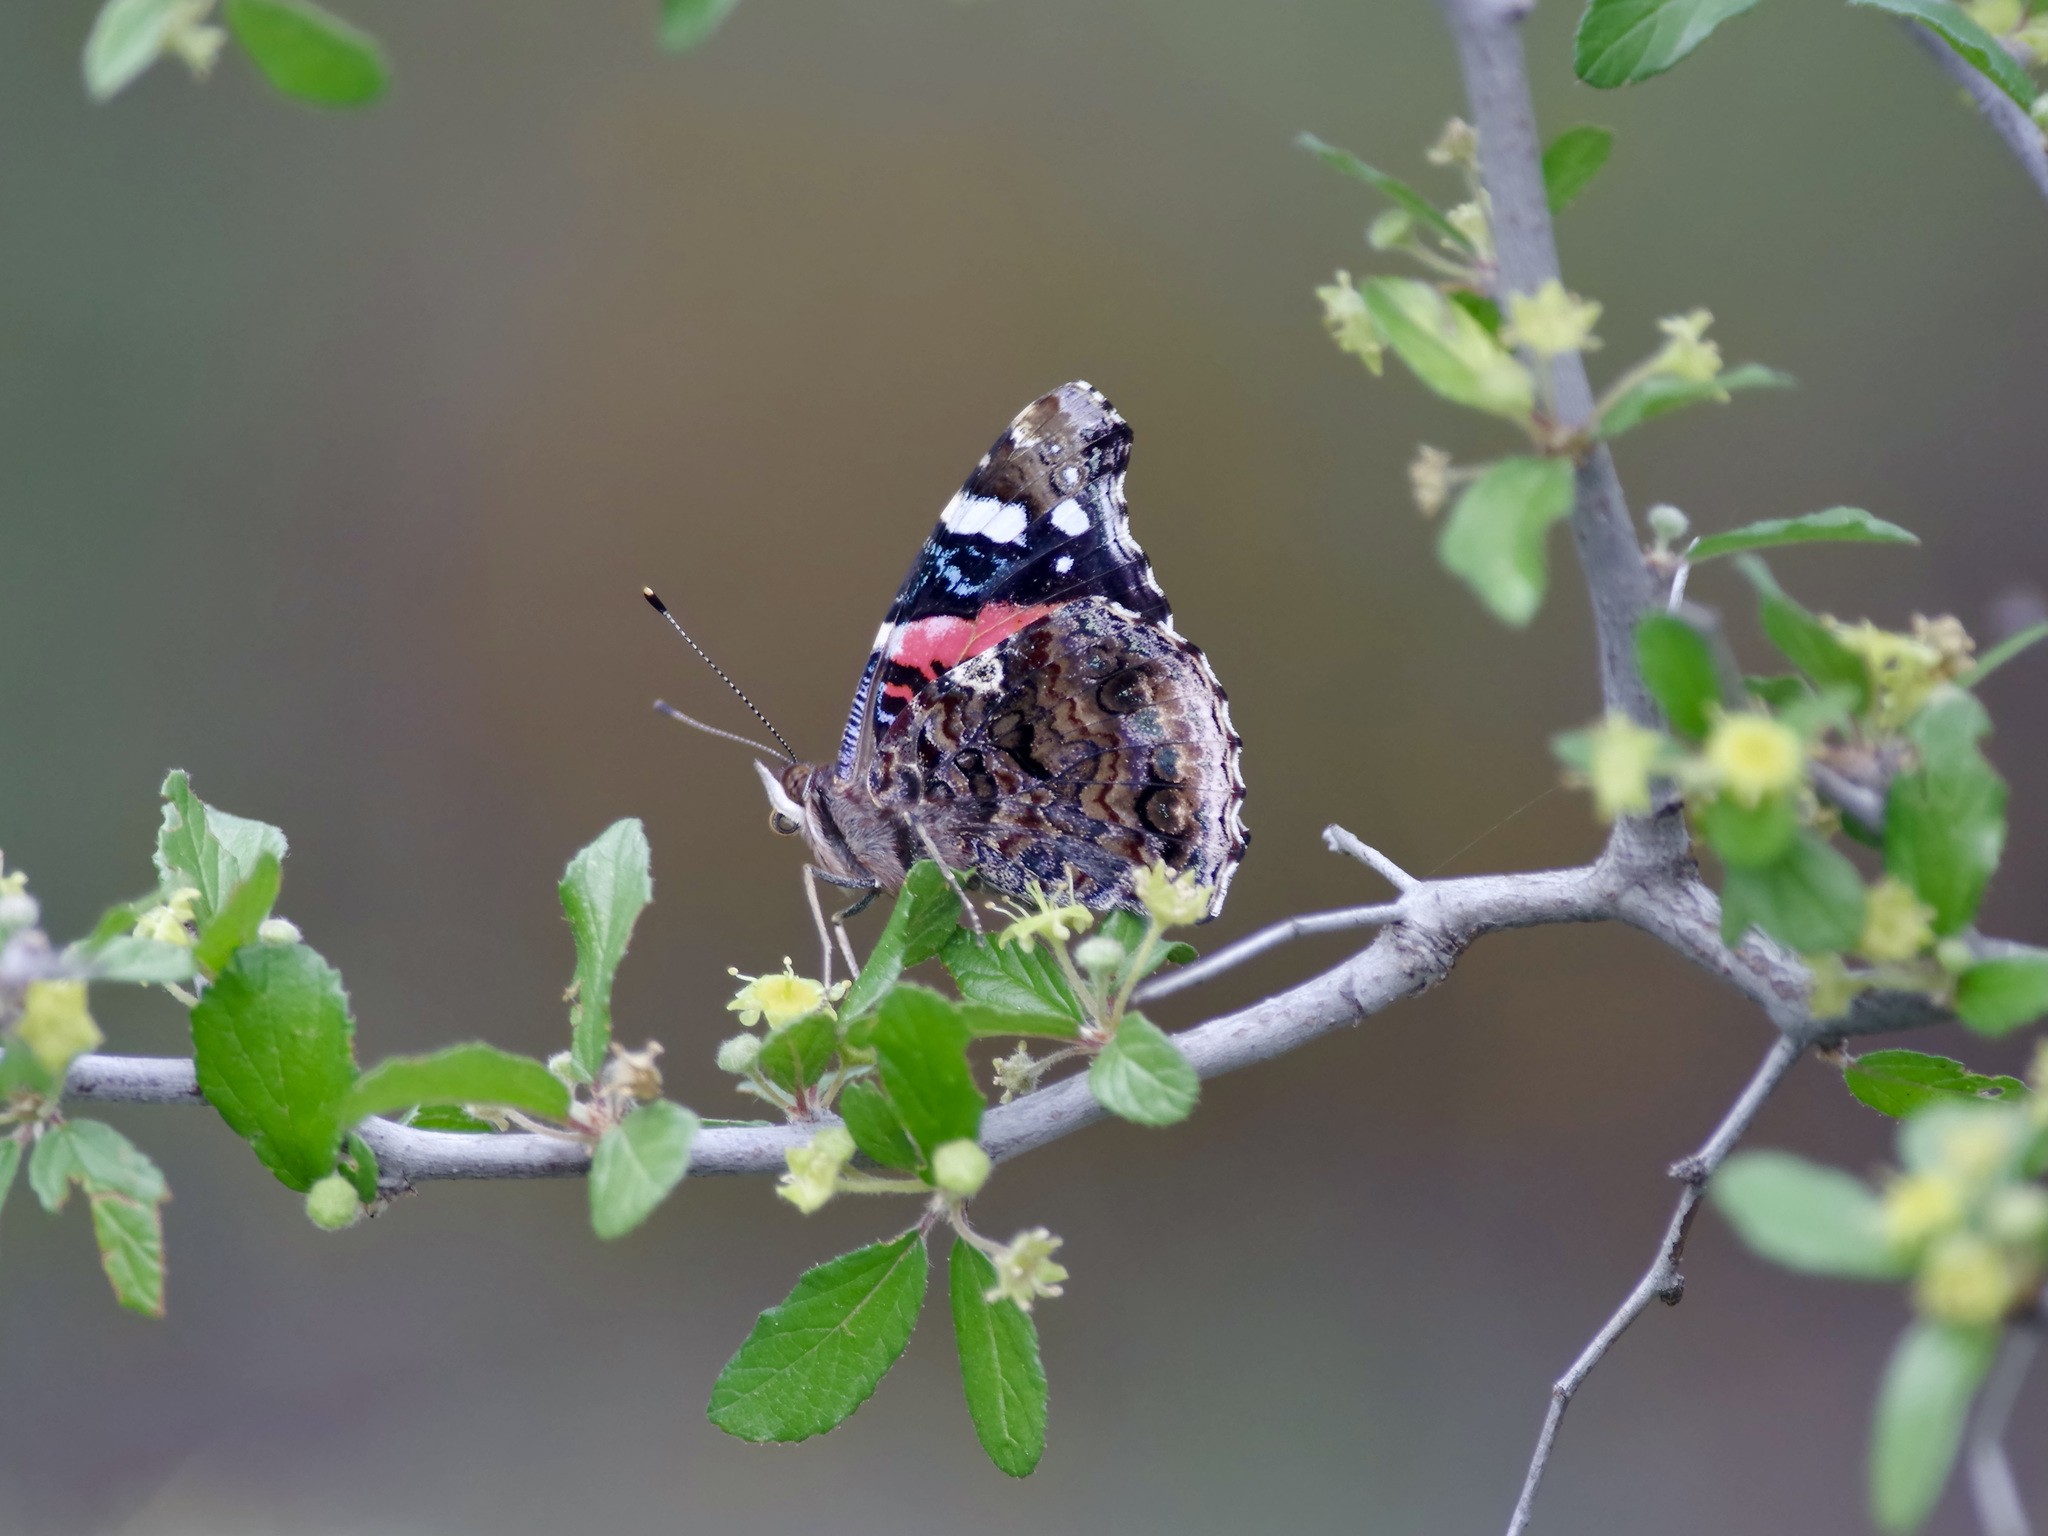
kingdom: Animalia
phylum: Arthropoda
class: Insecta
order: Lepidoptera
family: Nymphalidae
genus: Vanessa
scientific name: Vanessa atalanta
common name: Red admiral
